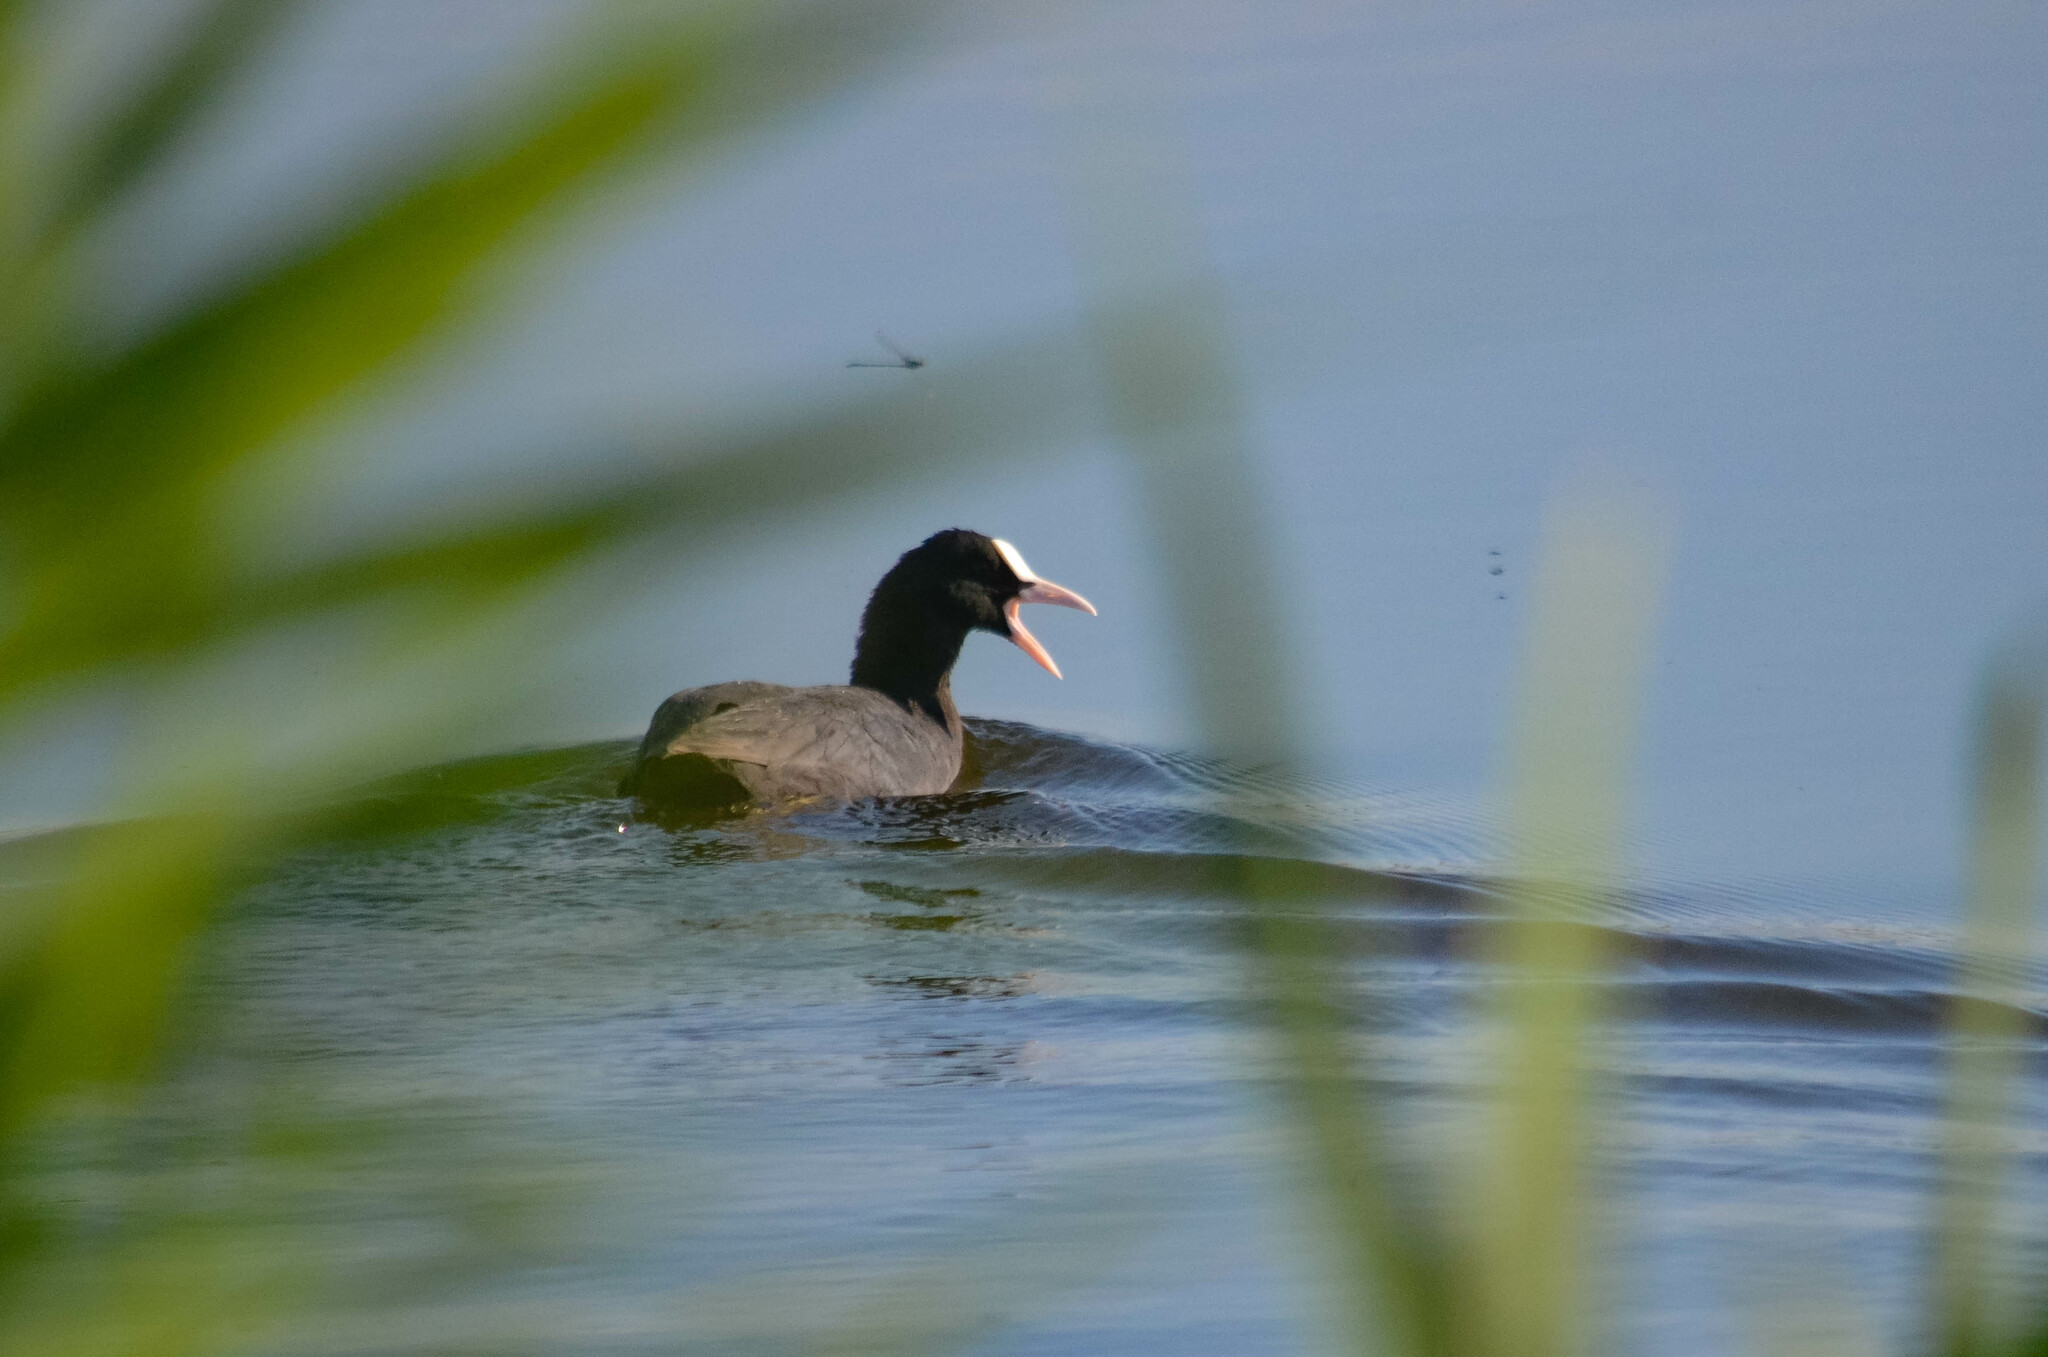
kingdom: Animalia
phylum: Chordata
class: Aves
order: Gruiformes
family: Rallidae
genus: Fulica
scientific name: Fulica atra
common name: Eurasian coot
